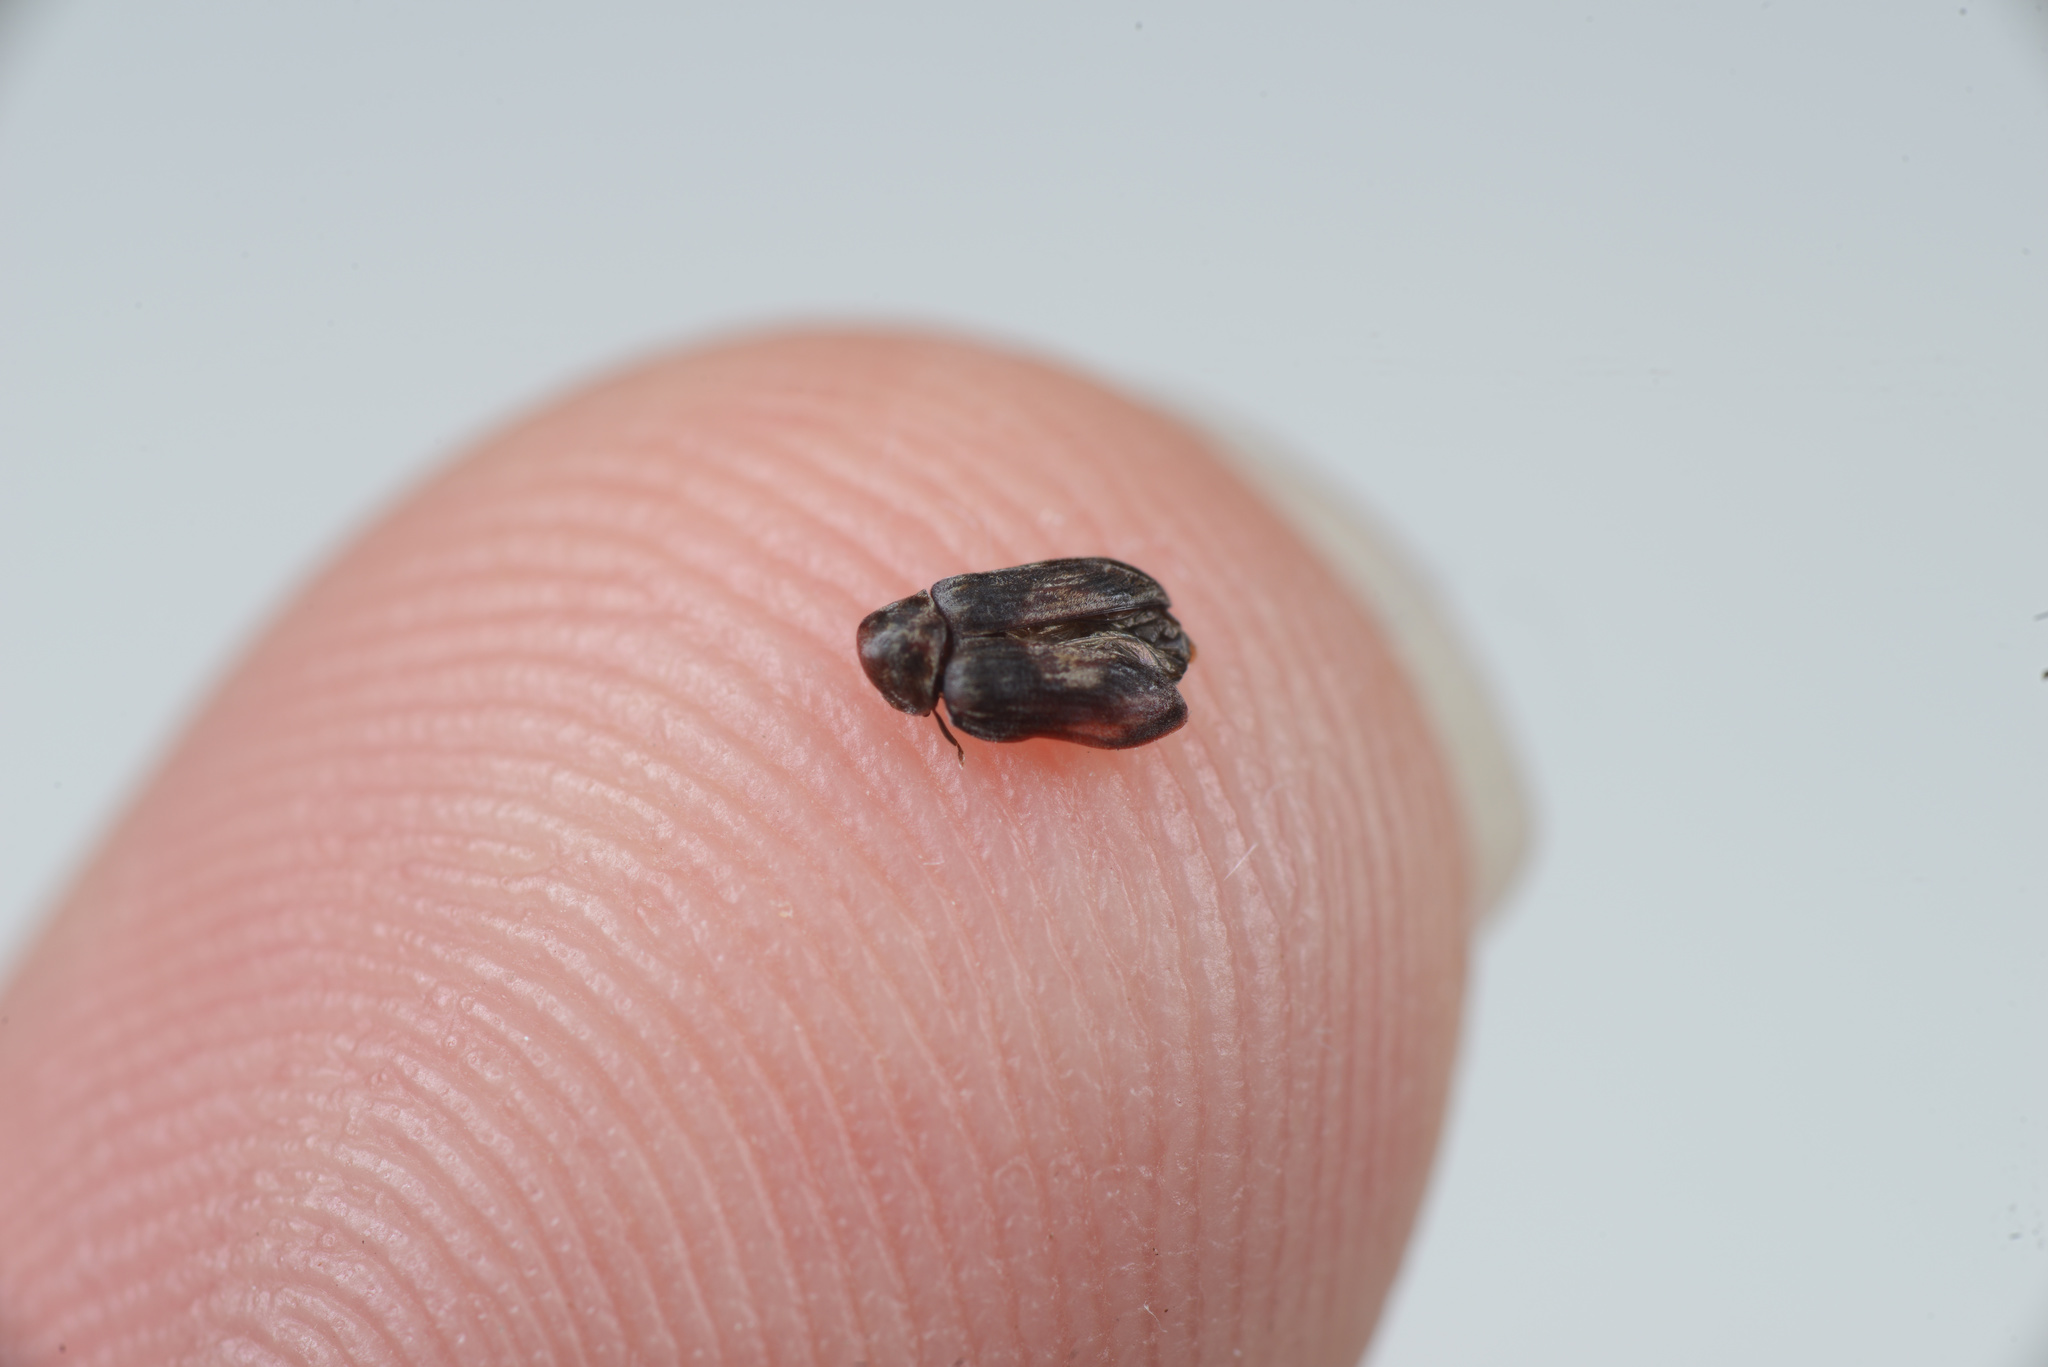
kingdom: Animalia
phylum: Arthropoda
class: Insecta
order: Coleoptera
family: Ptinidae
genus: Leanobium
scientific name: Leanobium
